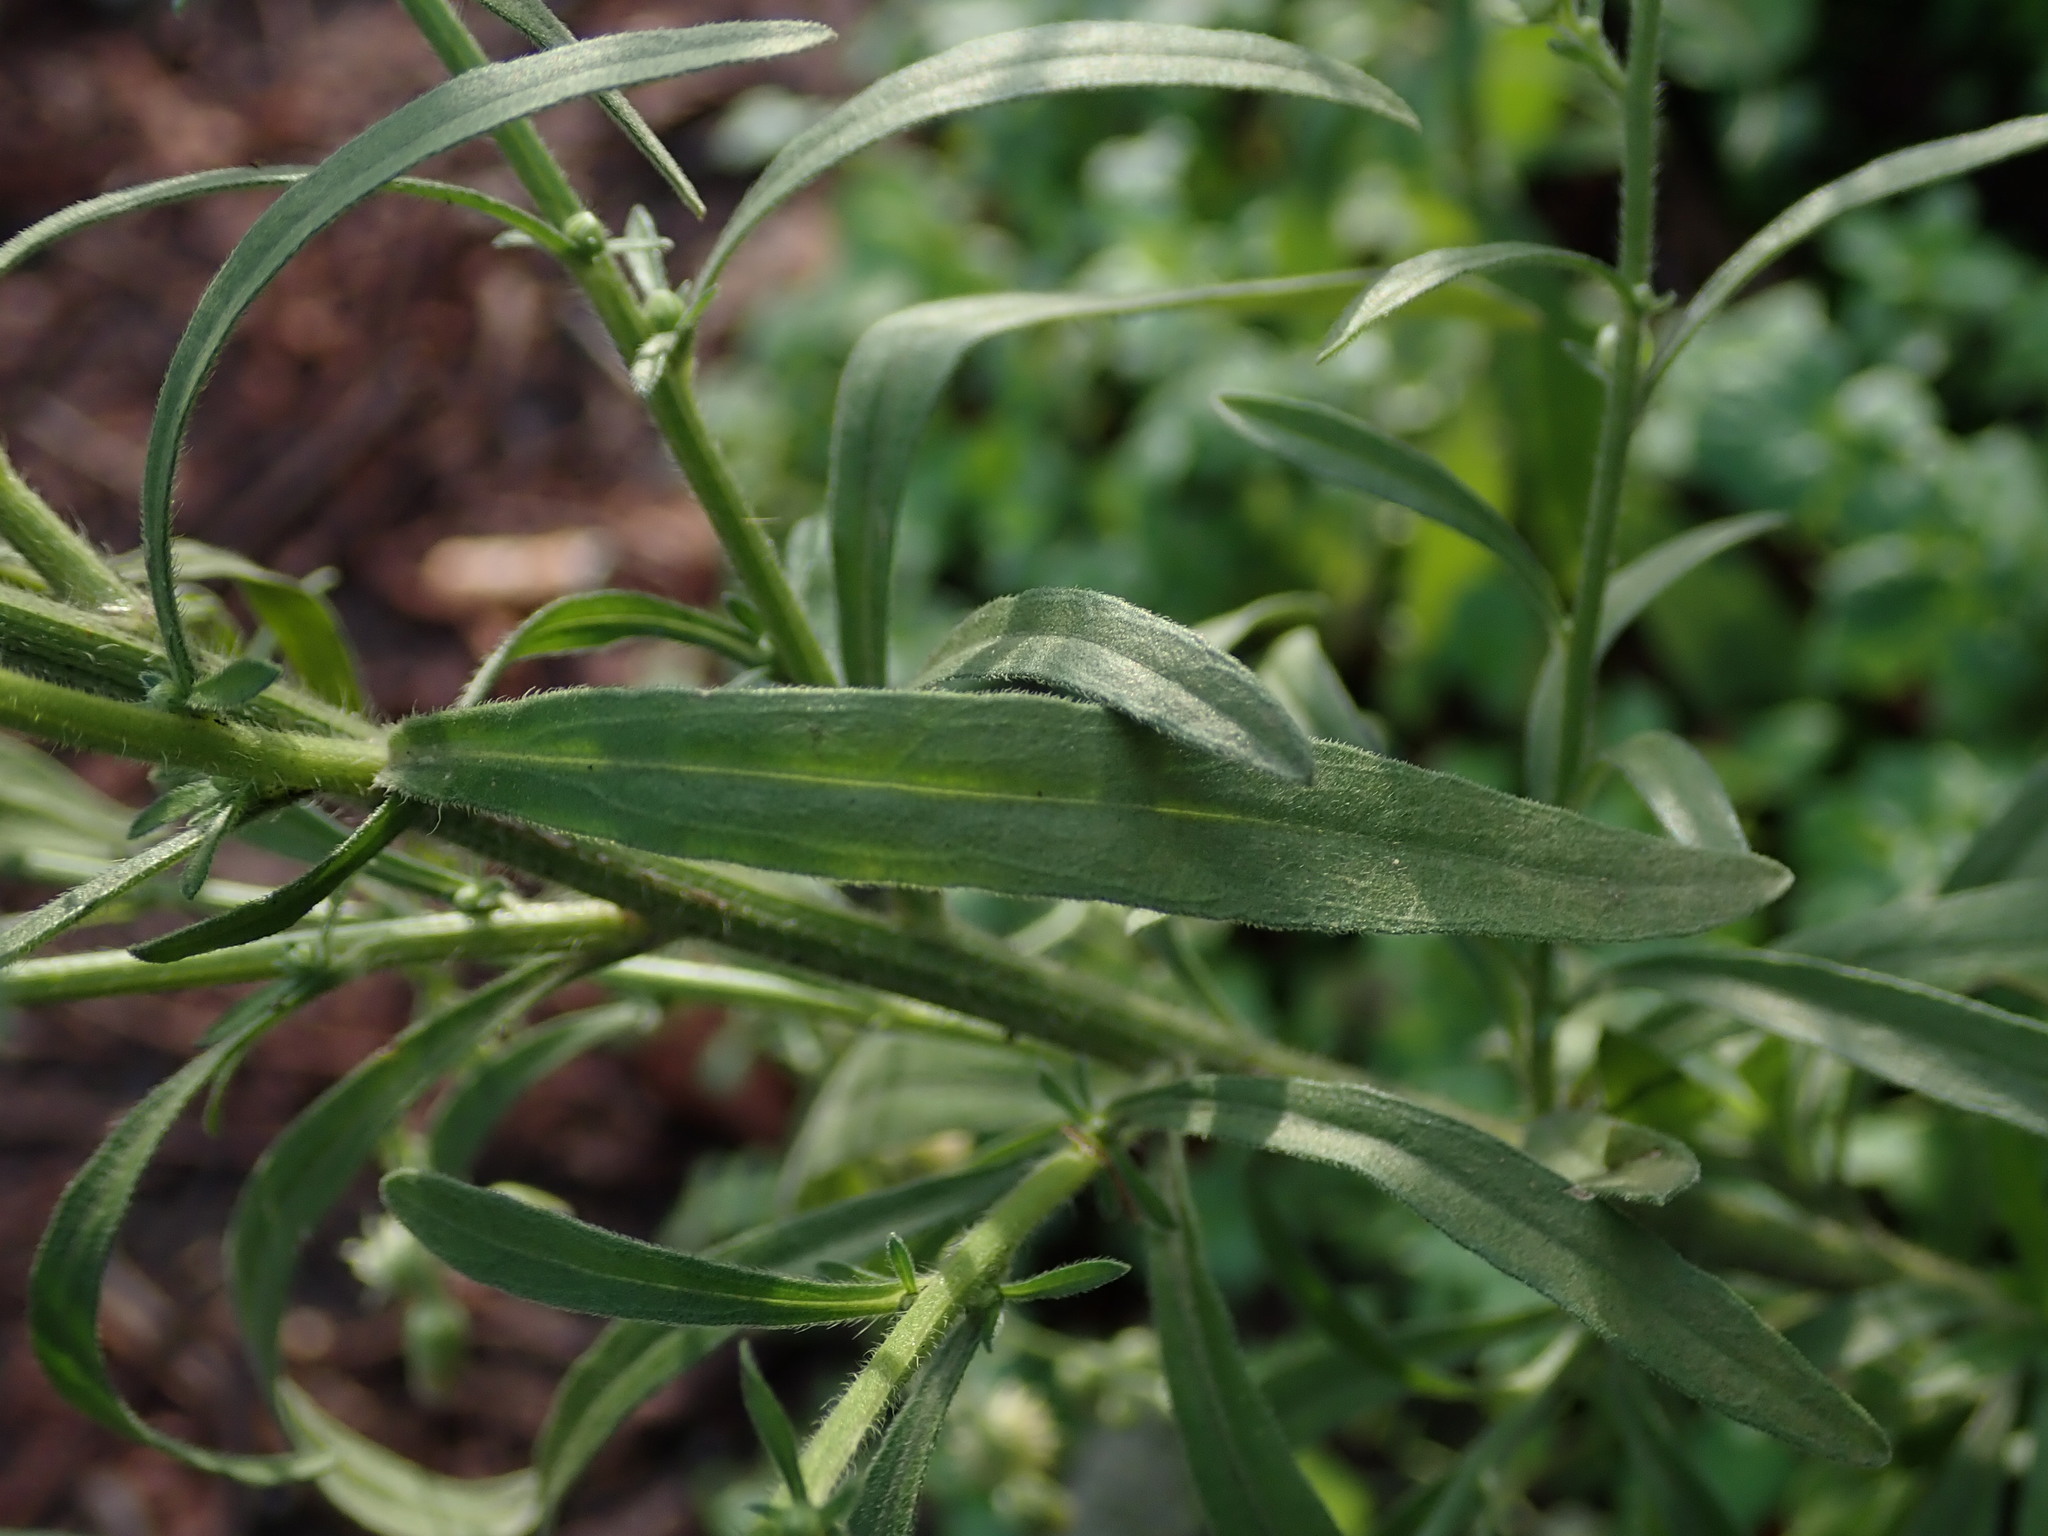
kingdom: Plantae
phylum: Tracheophyta
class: Magnoliopsida
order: Asterales
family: Asteraceae
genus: Erigeron
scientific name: Erigeron sumatrensis
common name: Daisy
